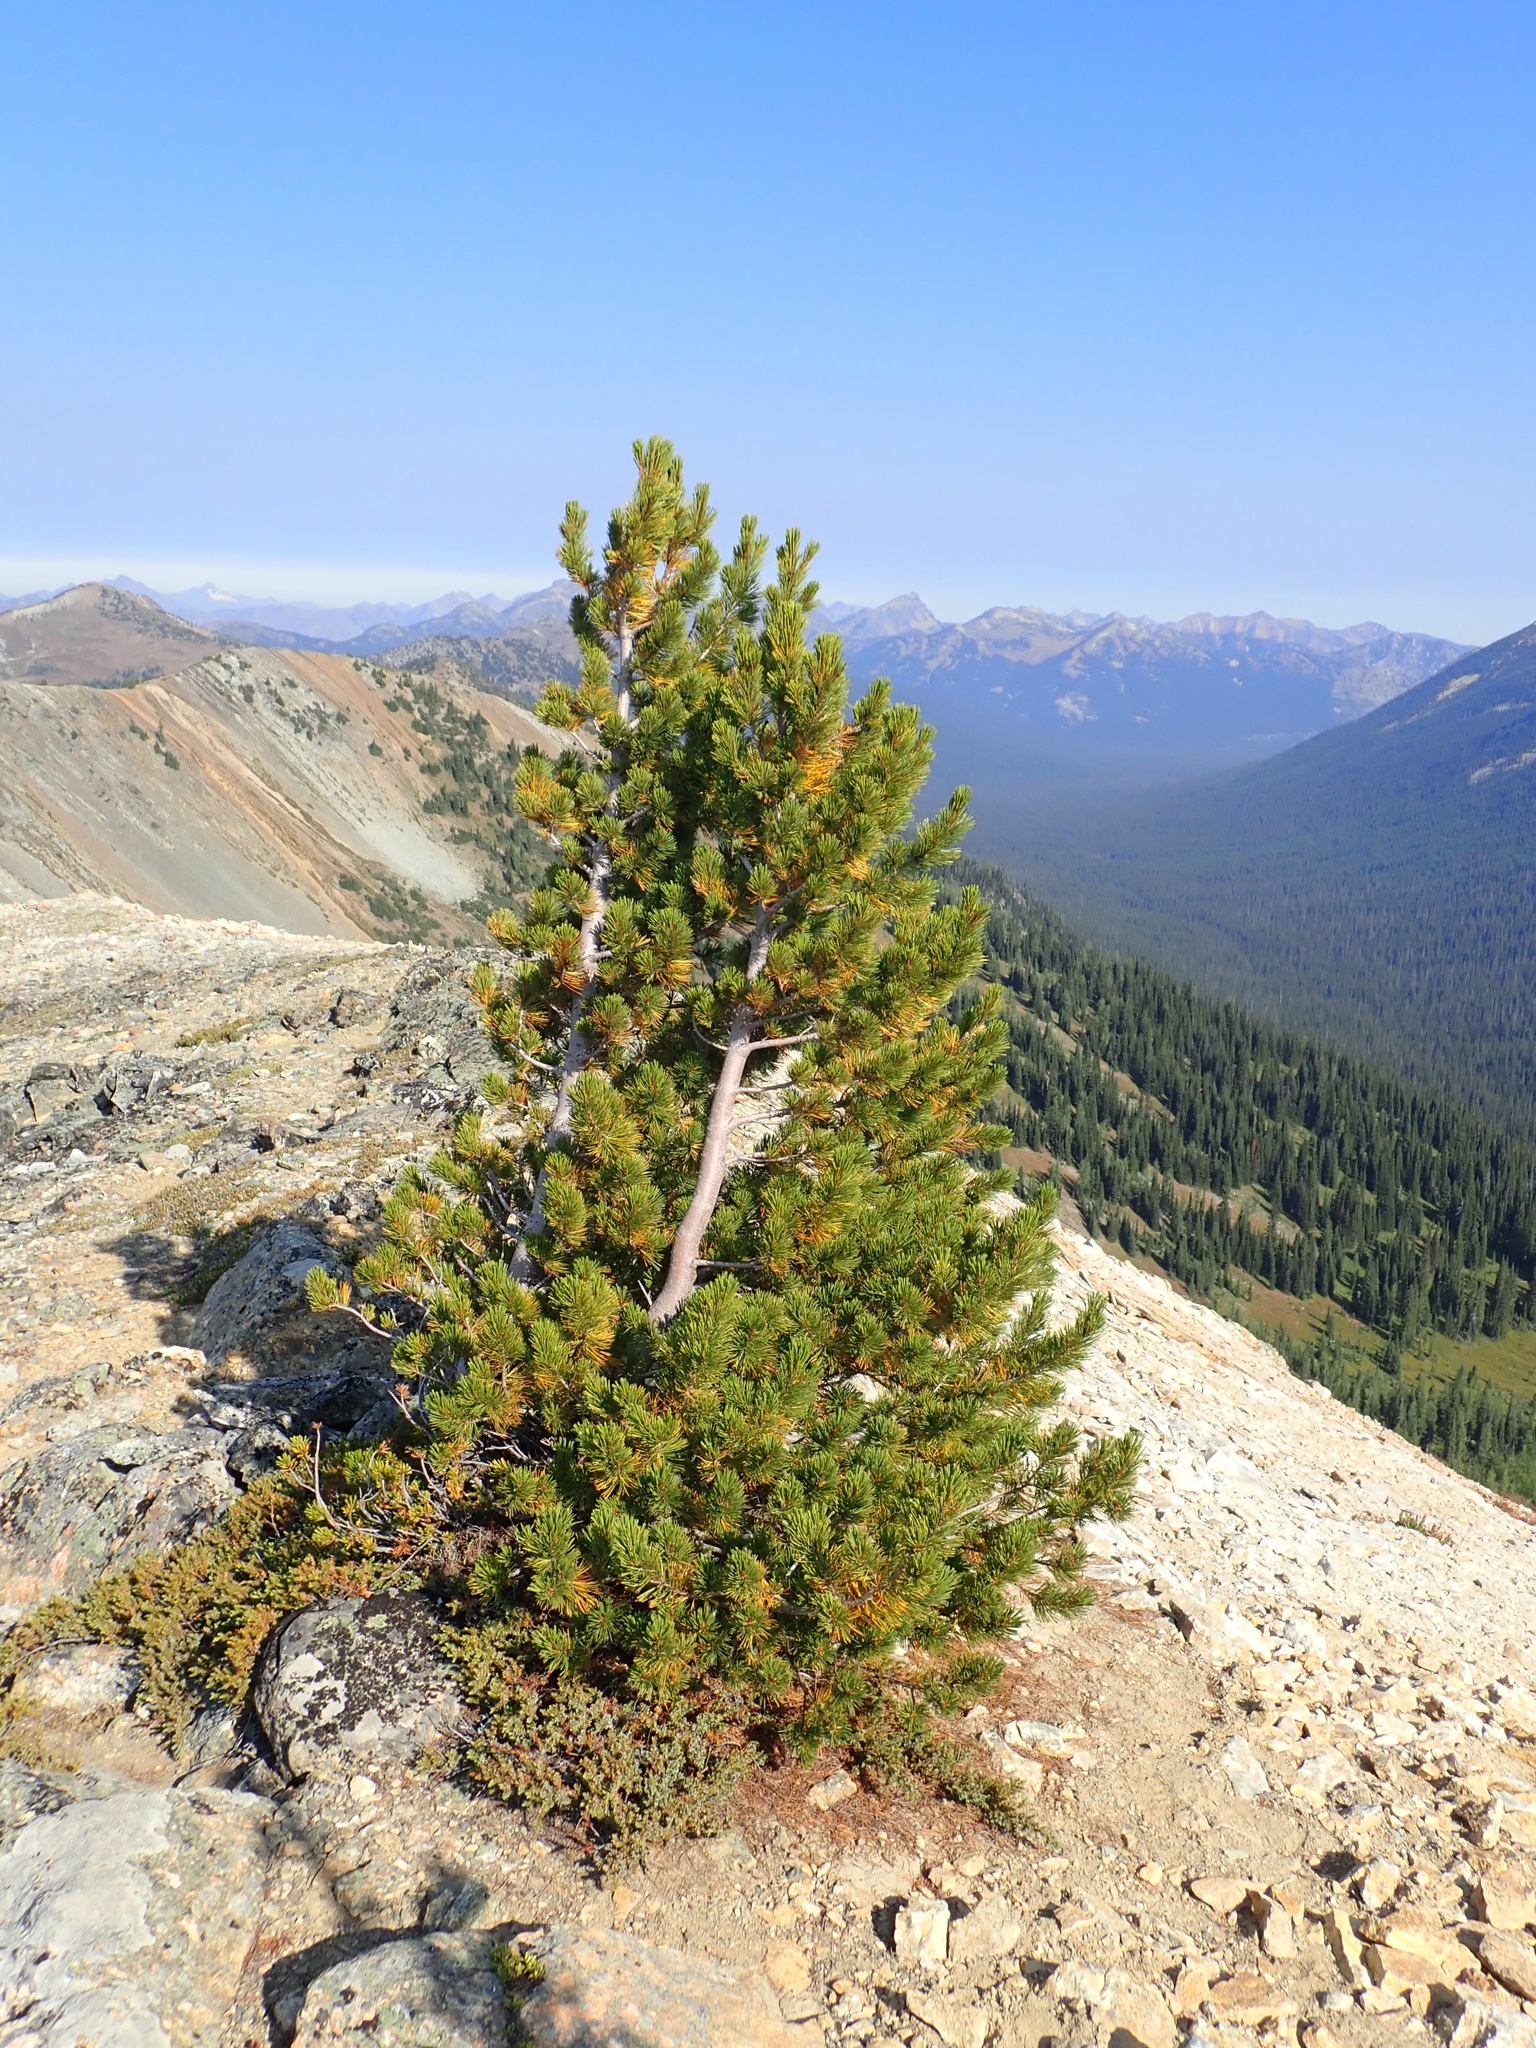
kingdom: Plantae
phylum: Tracheophyta
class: Pinopsida
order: Pinales
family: Pinaceae
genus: Pinus
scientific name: Pinus albicaulis
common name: Whitebark pine
